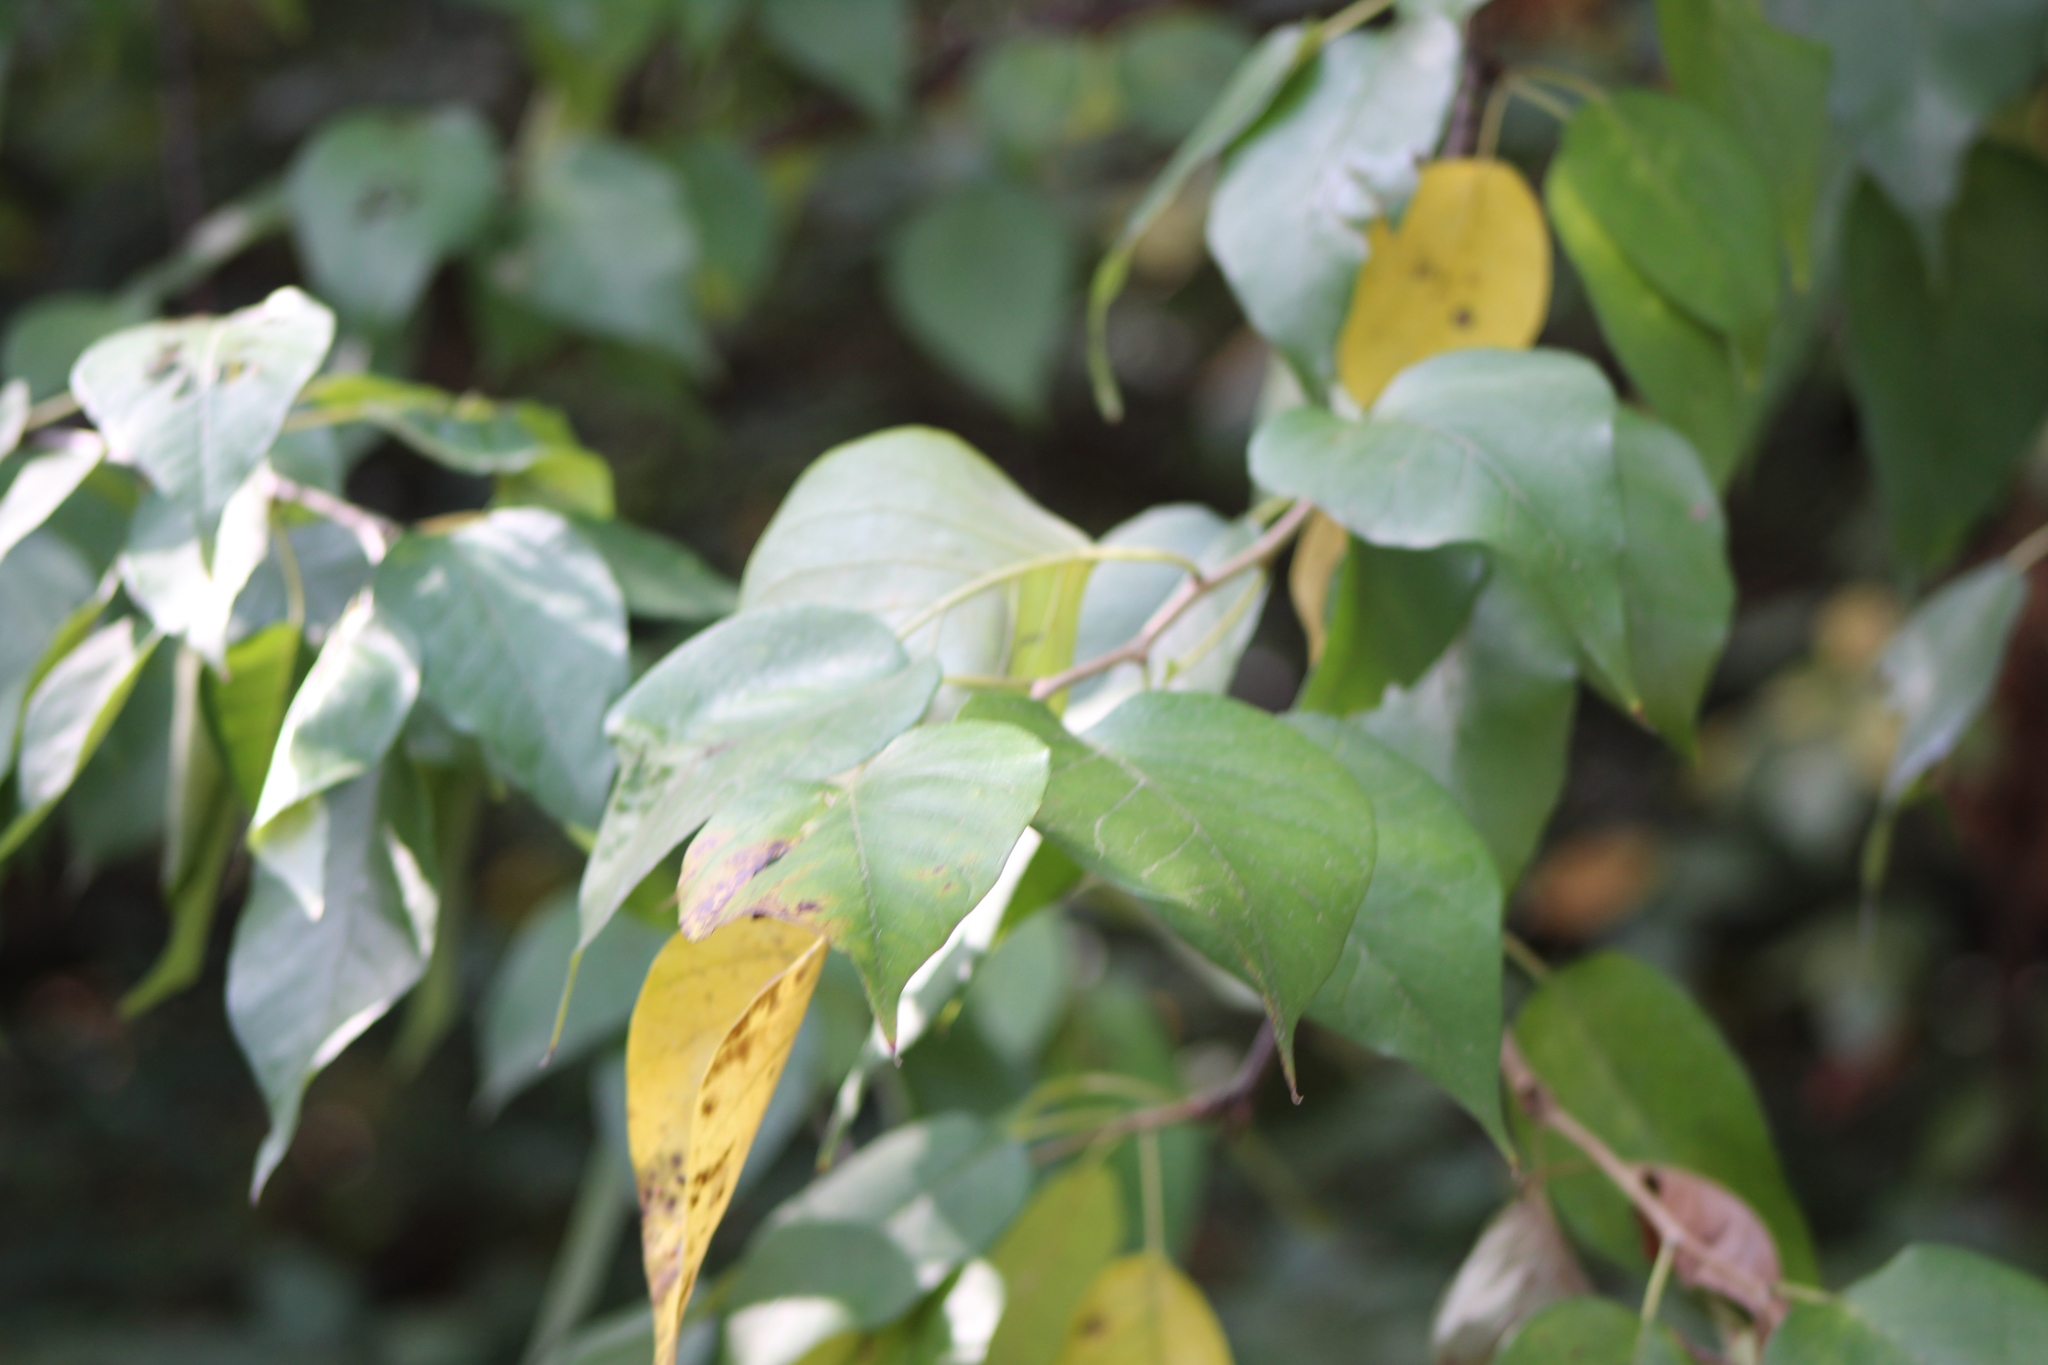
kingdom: Plantae
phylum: Tracheophyta
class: Magnoliopsida
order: Rosales
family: Moraceae
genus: Maclura
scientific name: Maclura pomifera
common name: Osage-orange
